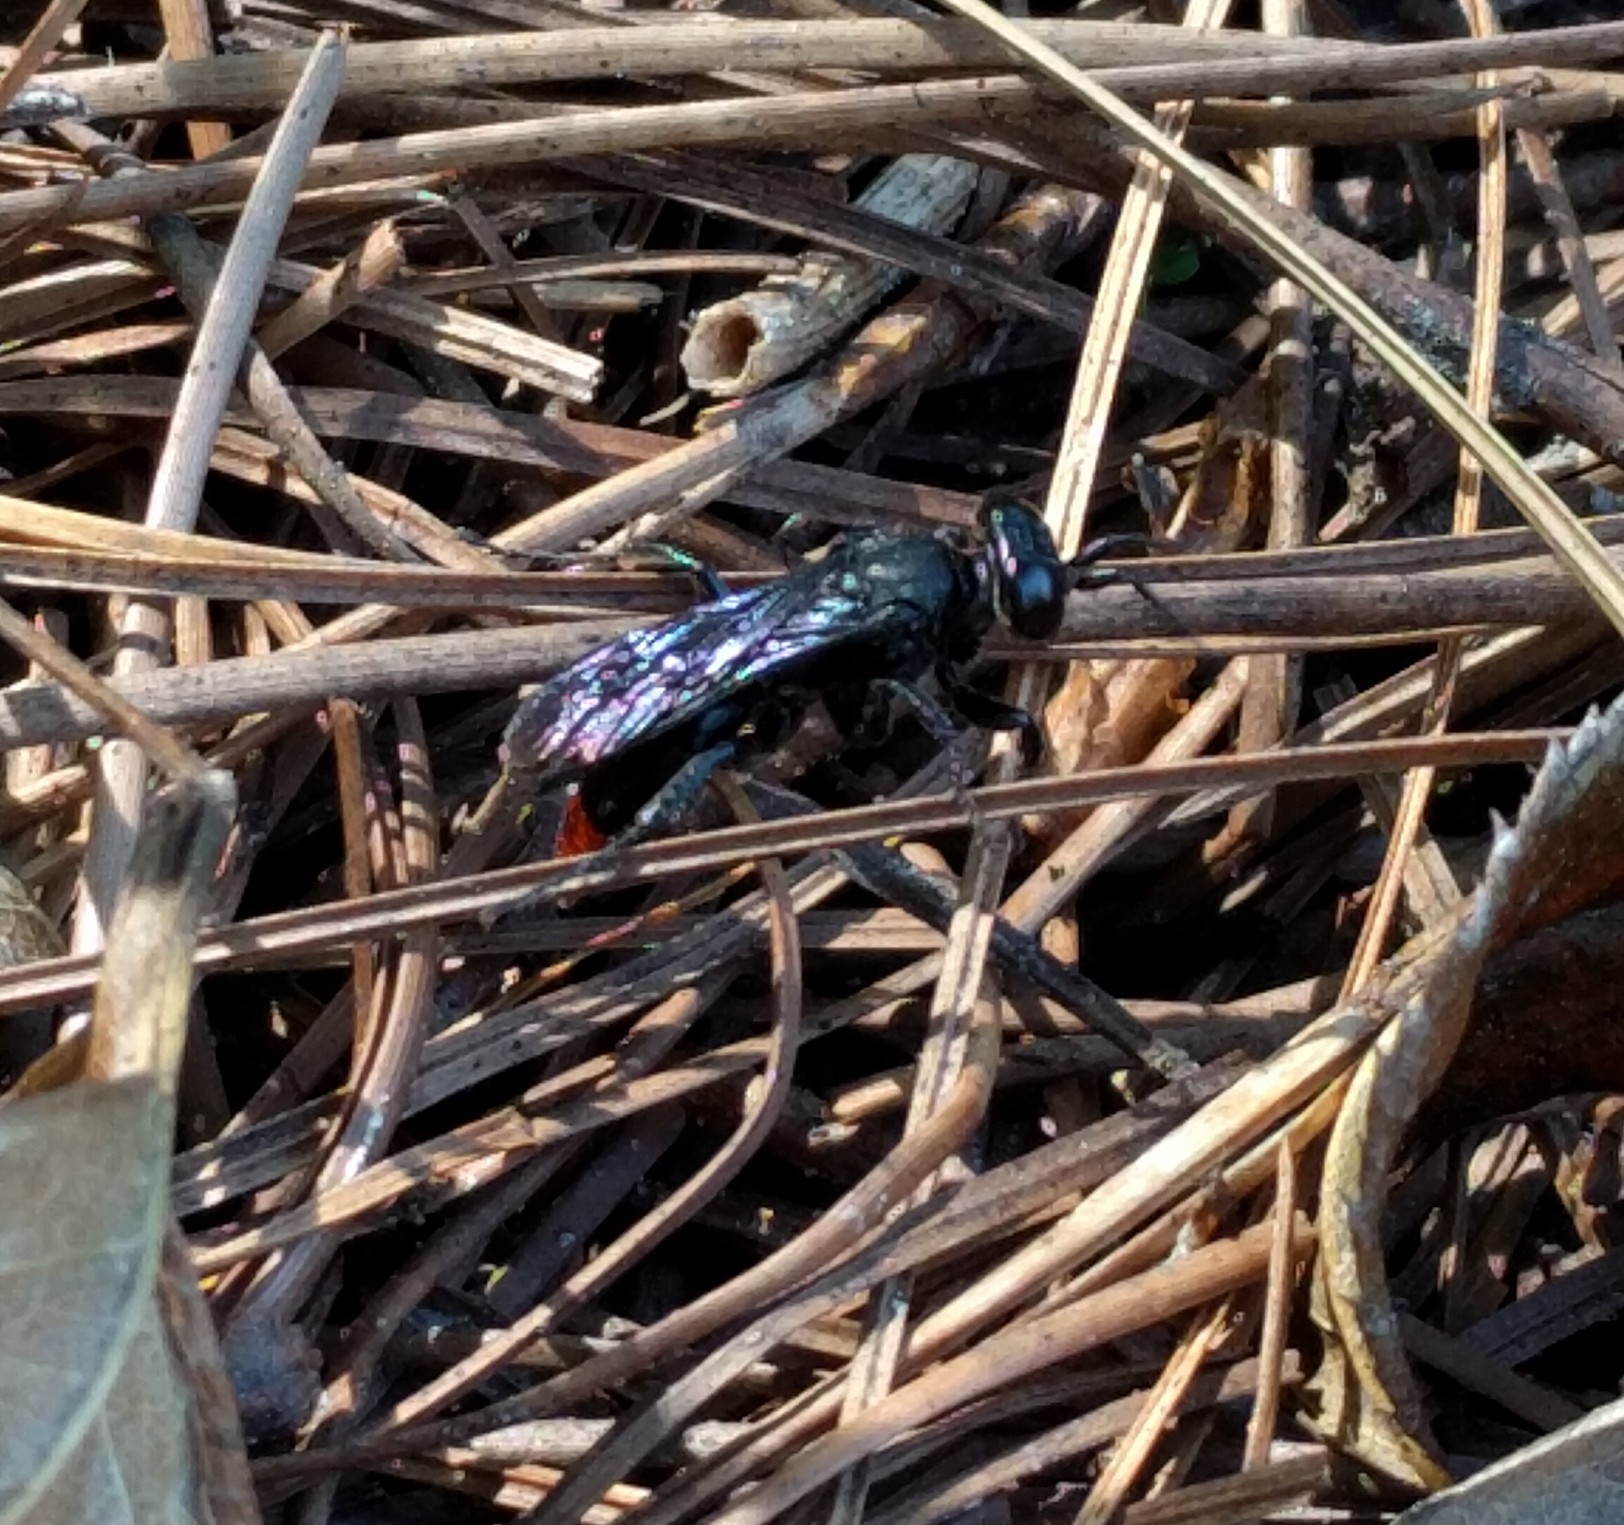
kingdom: Animalia
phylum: Arthropoda
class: Insecta
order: Hymenoptera
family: Crabronidae
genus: Larra
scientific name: Larra analis
